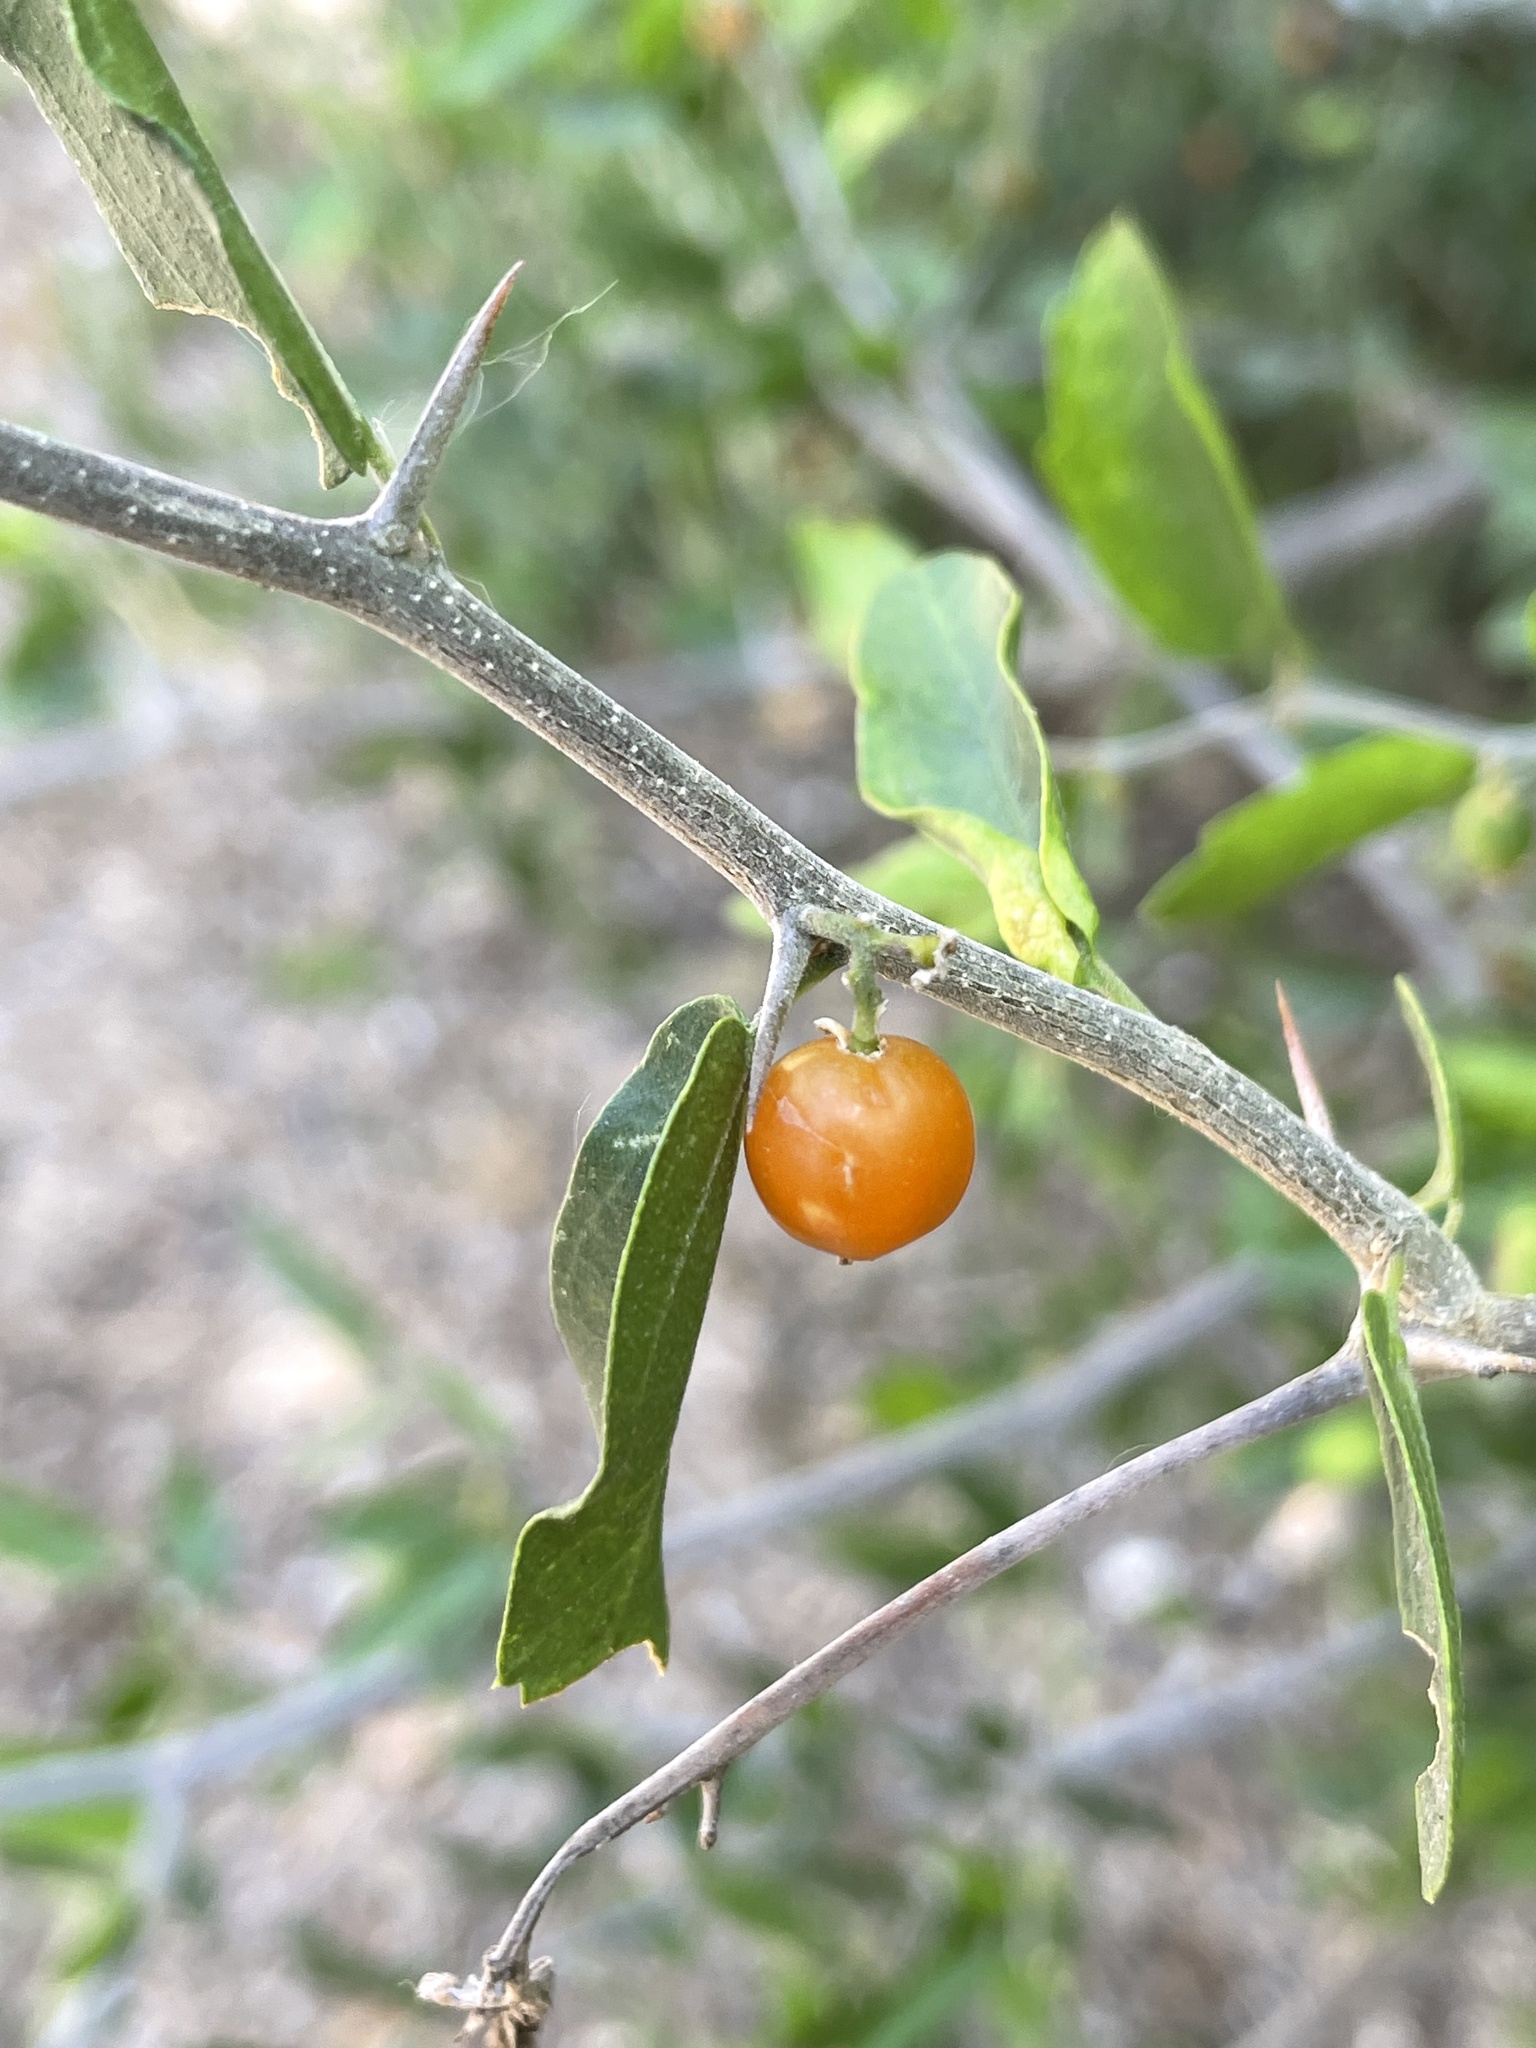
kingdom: Plantae
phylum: Tracheophyta
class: Magnoliopsida
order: Rosales
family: Cannabaceae
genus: Celtis
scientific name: Celtis pallida
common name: Desert hackberry
